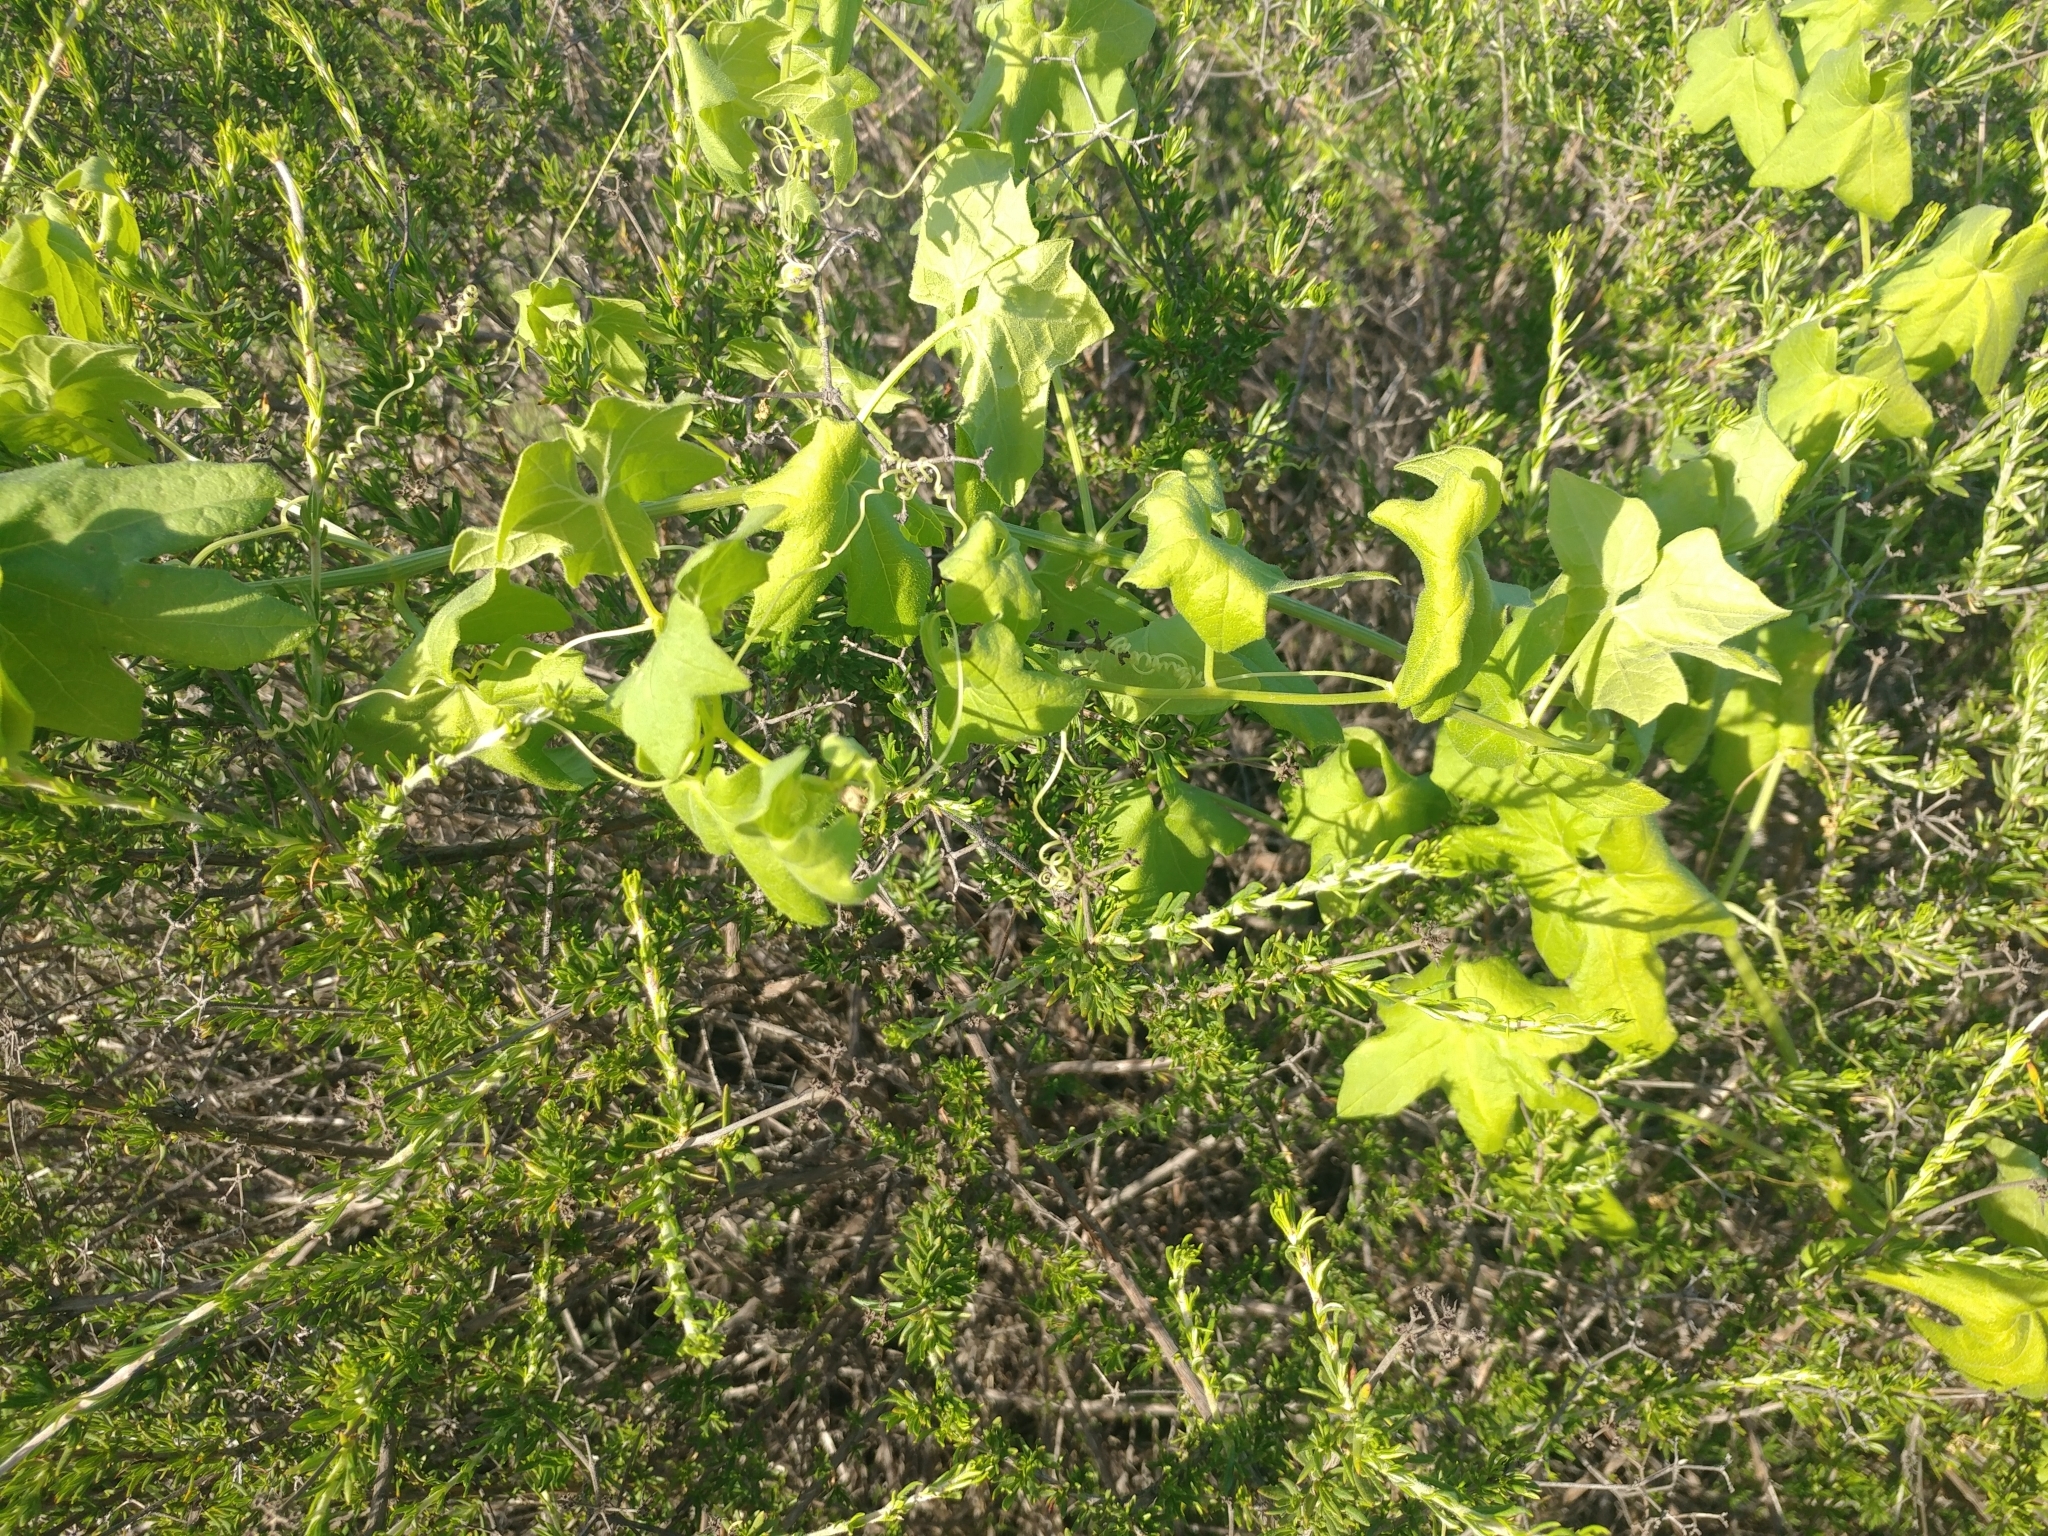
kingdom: Plantae
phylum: Tracheophyta
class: Magnoliopsida
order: Cucurbitales
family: Cucurbitaceae
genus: Marah
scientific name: Marah macrocarpa
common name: Cucamonga manroot
